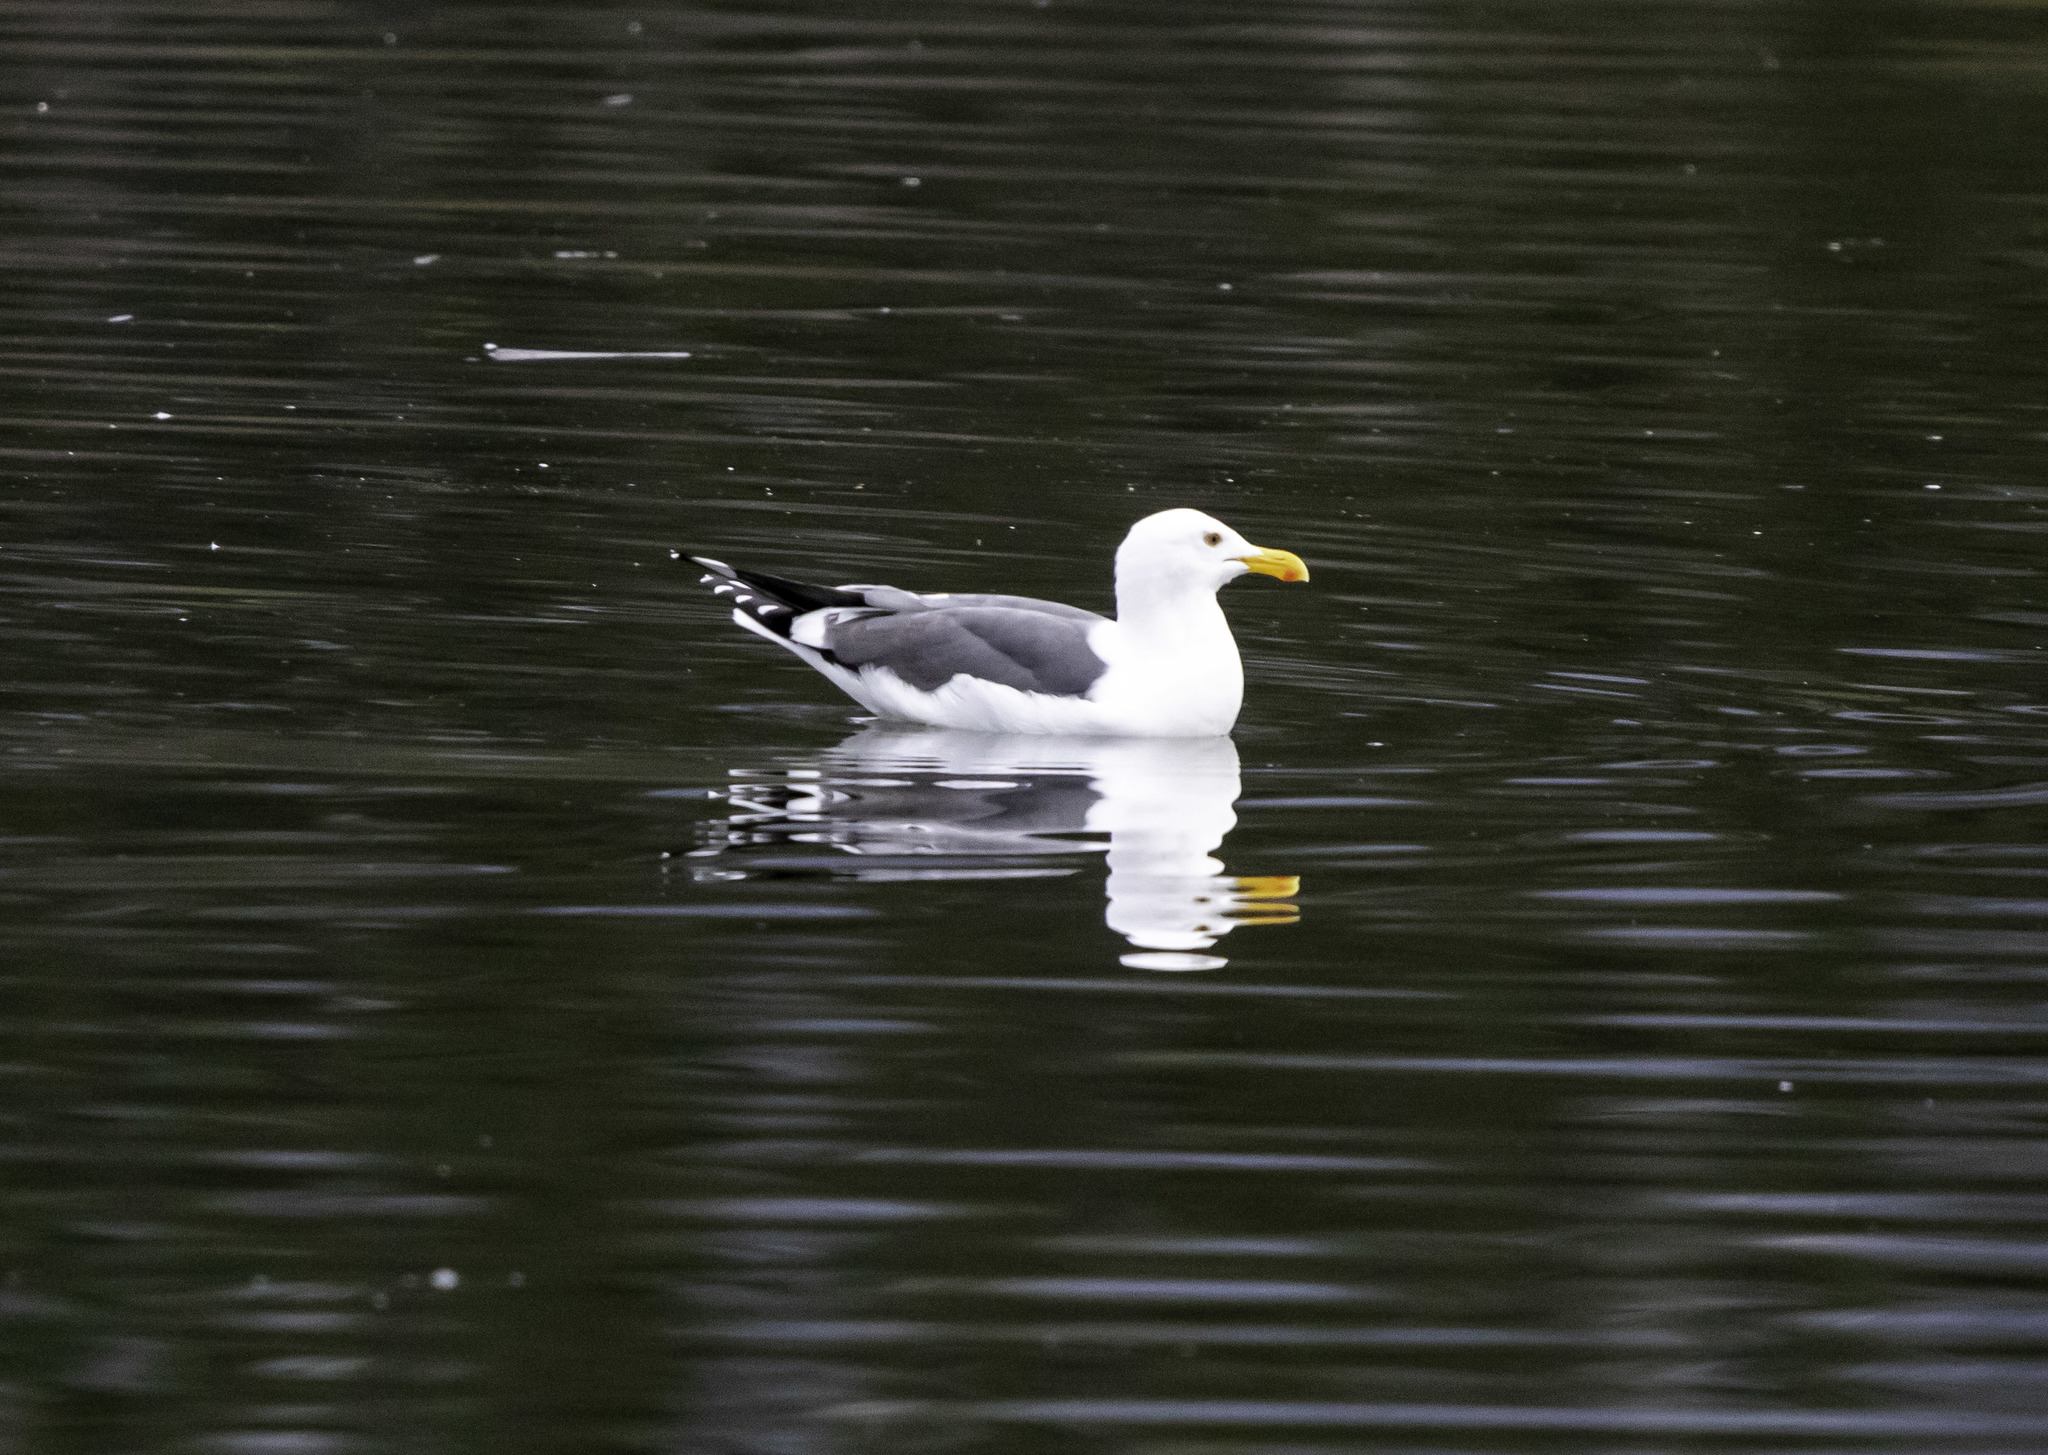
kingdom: Animalia
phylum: Chordata
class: Aves
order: Charadriiformes
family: Laridae
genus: Larus
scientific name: Larus occidentalis
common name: Western gull
